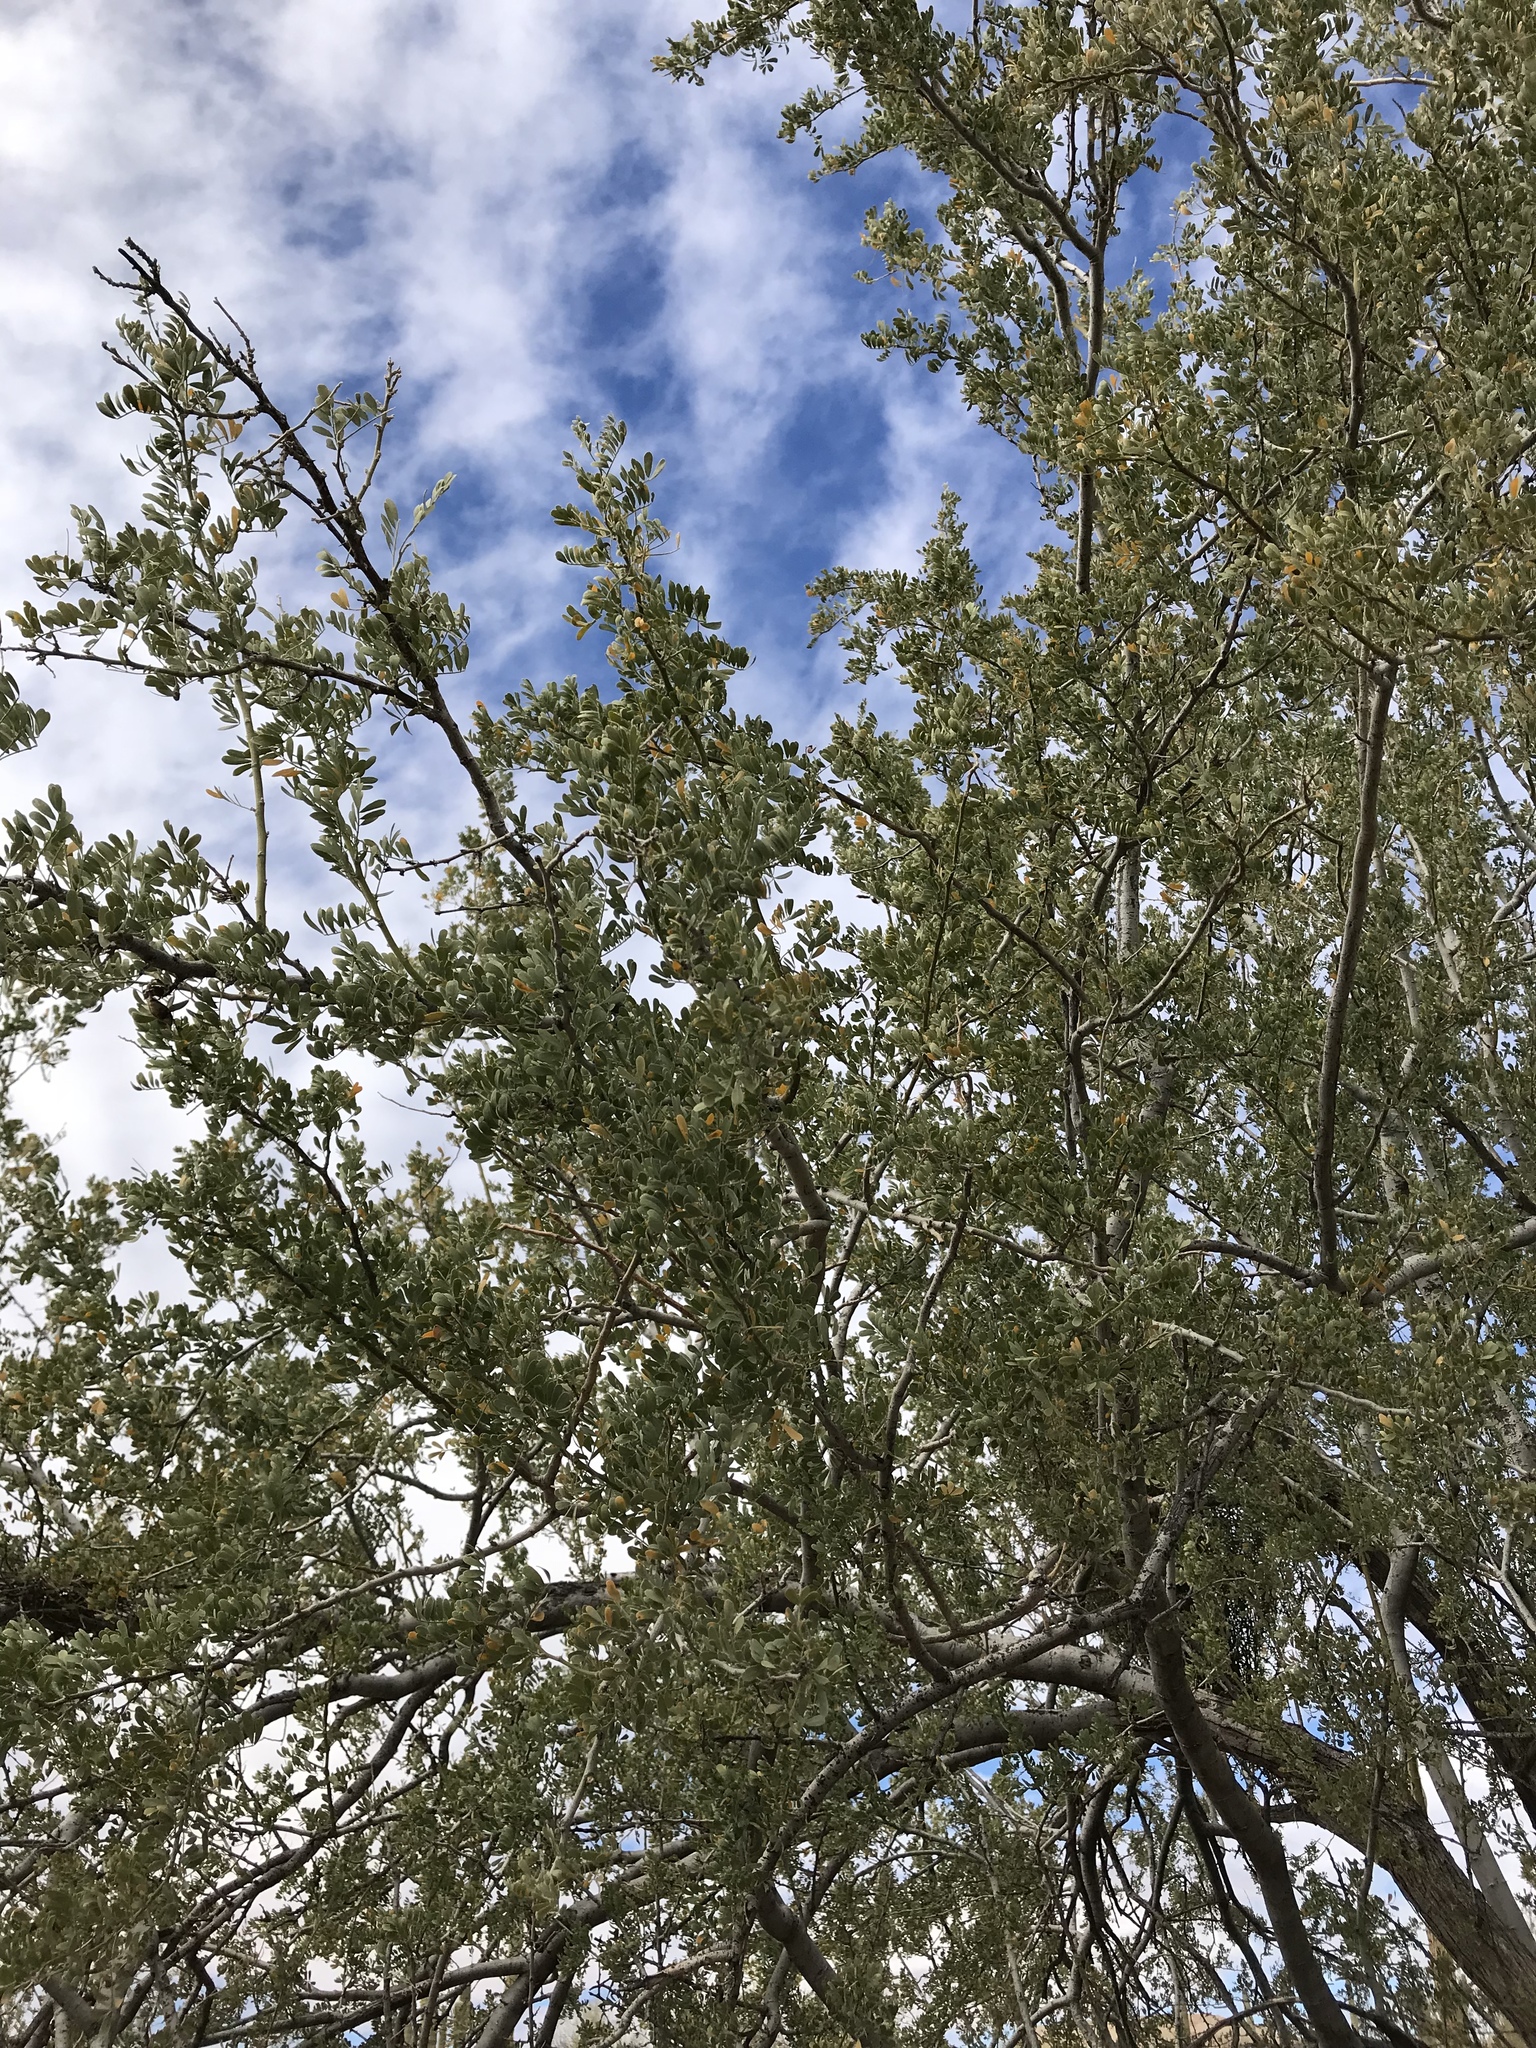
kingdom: Plantae
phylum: Tracheophyta
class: Magnoliopsida
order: Fabales
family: Fabaceae
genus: Olneya
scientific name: Olneya tesota
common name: Desert ironwood
